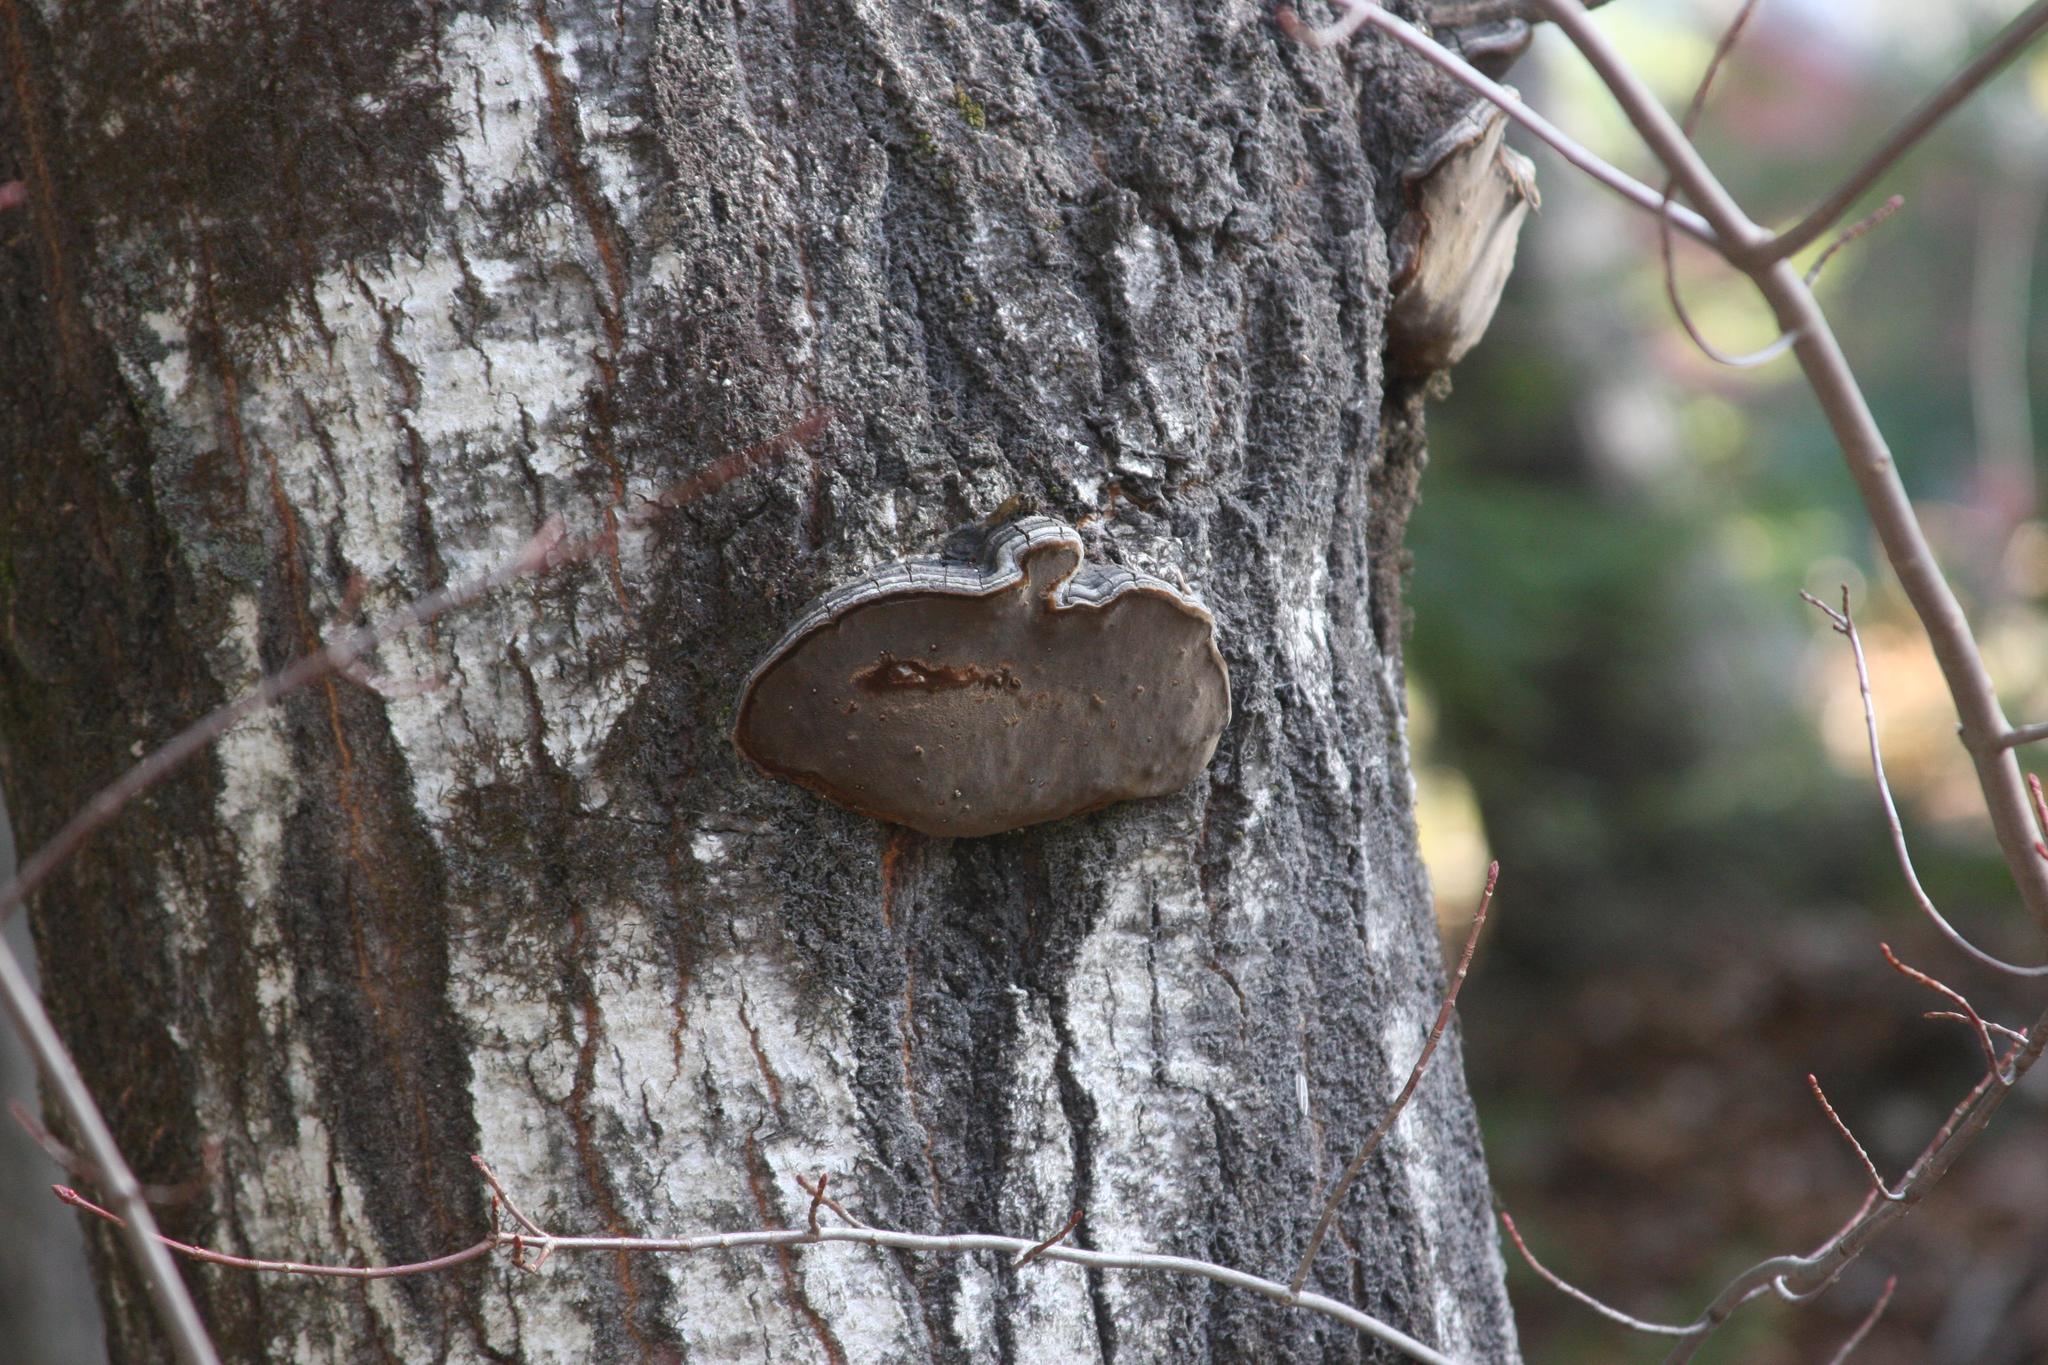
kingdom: Fungi
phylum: Basidiomycota
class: Agaricomycetes
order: Hymenochaetales
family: Hymenochaetaceae
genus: Phellinus
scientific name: Phellinus tremulae
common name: Aspen bracket
